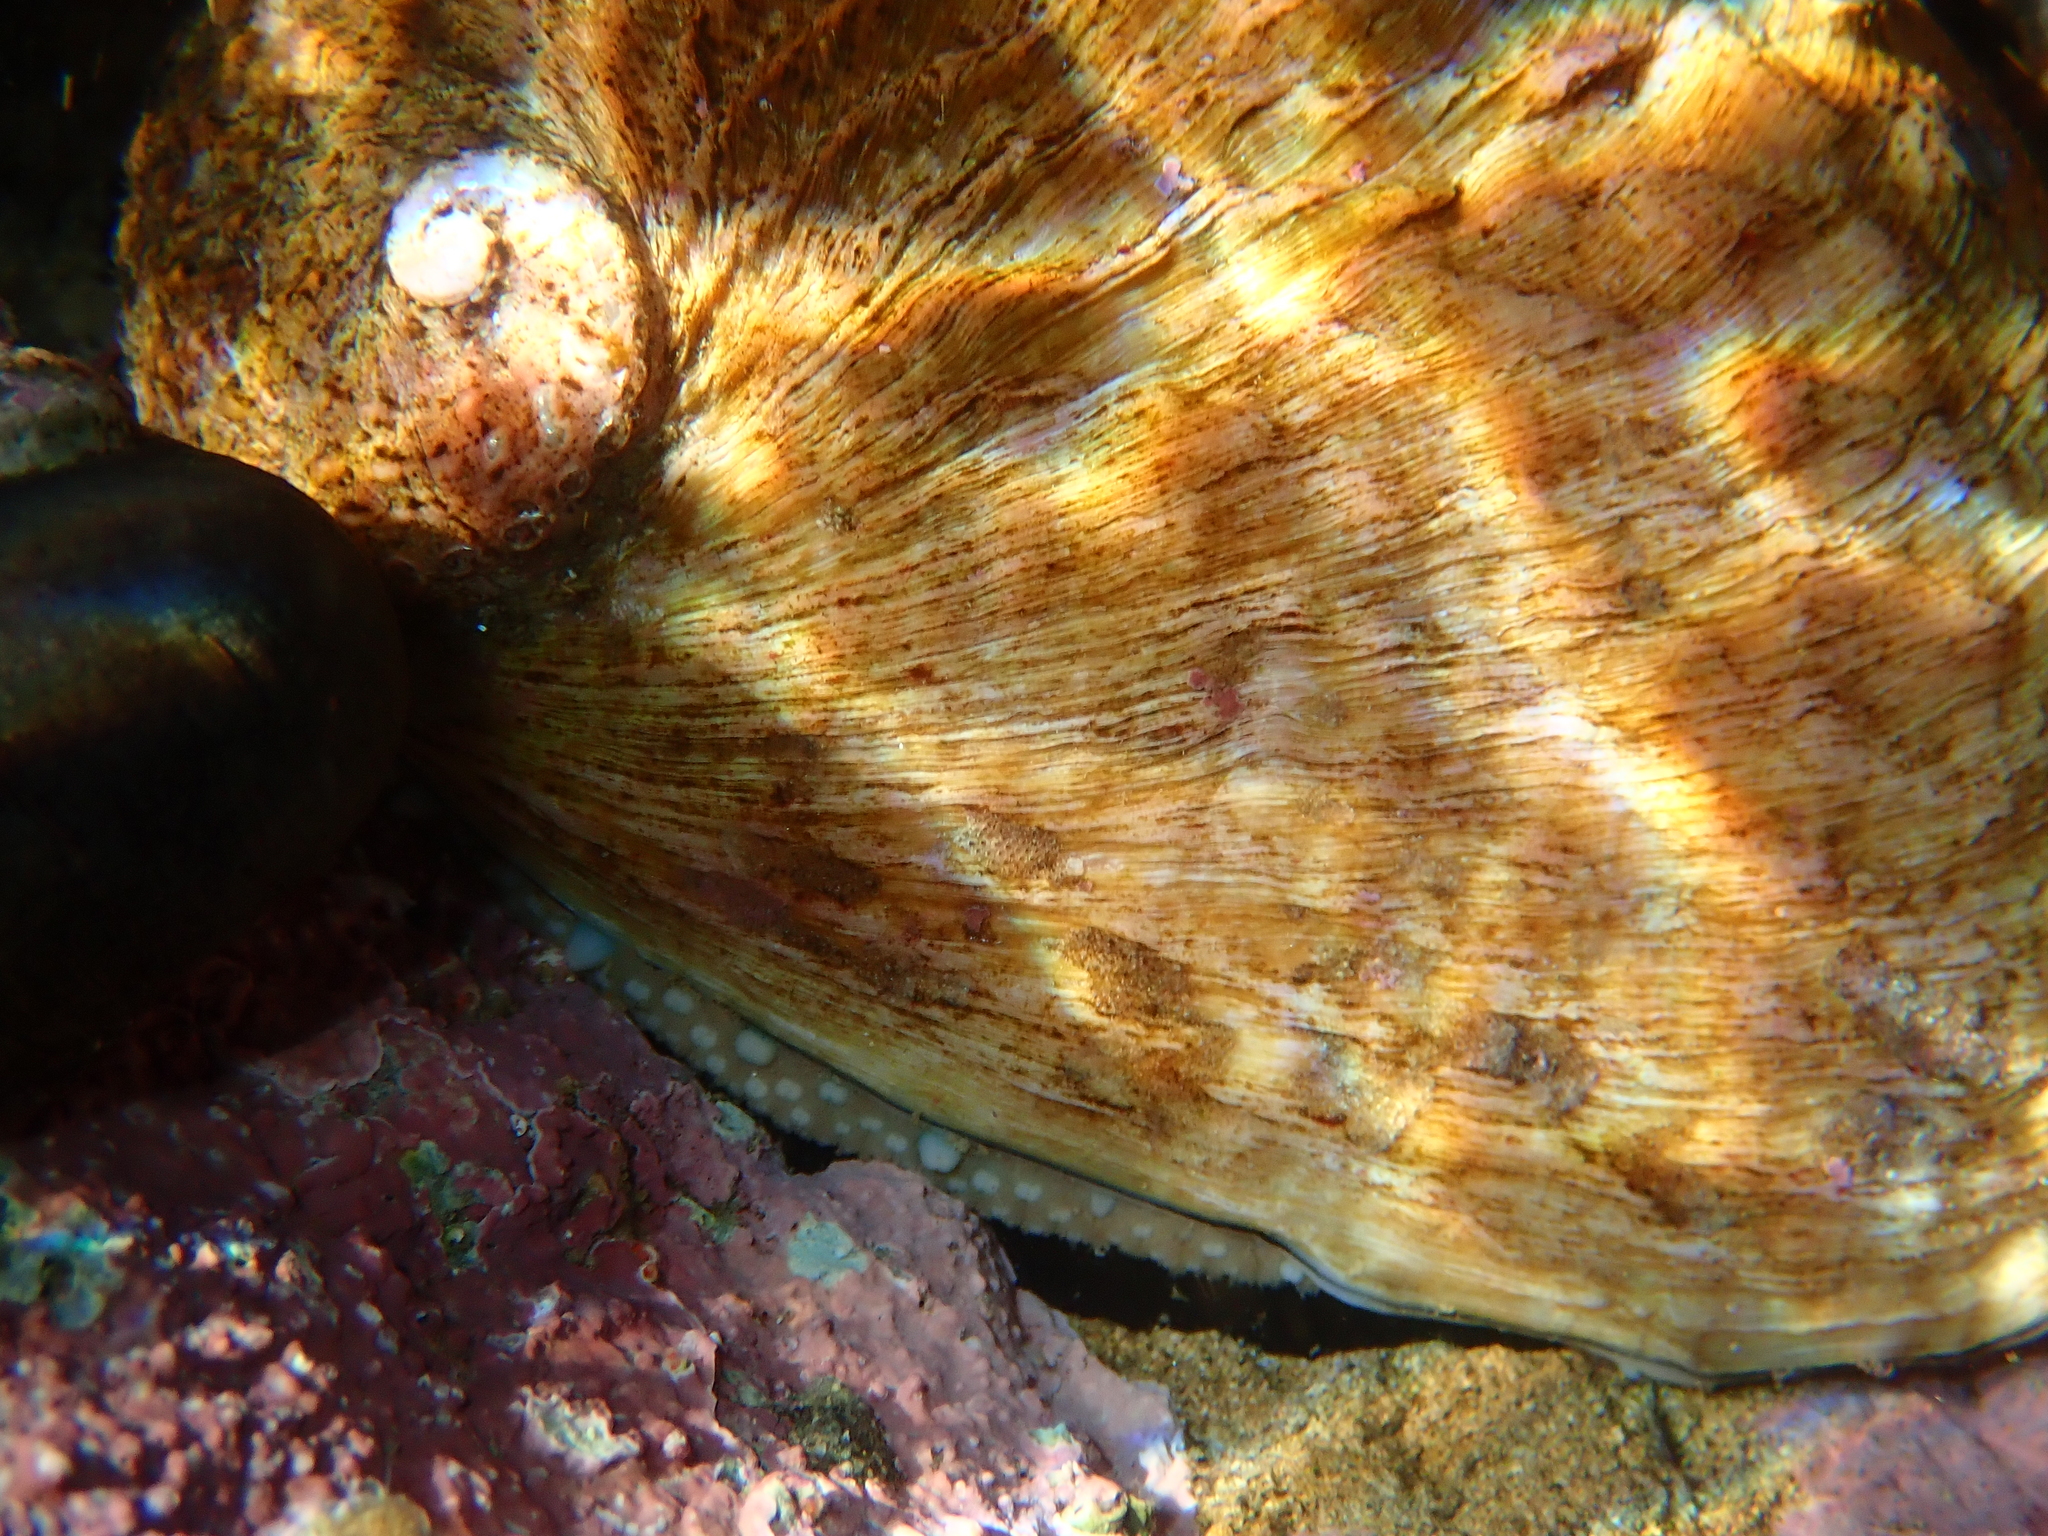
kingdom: Animalia
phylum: Mollusca
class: Gastropoda
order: Lepetellida
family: Haliotidae
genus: Haliotis
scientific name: Haliotis australis
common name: Silver abalone
